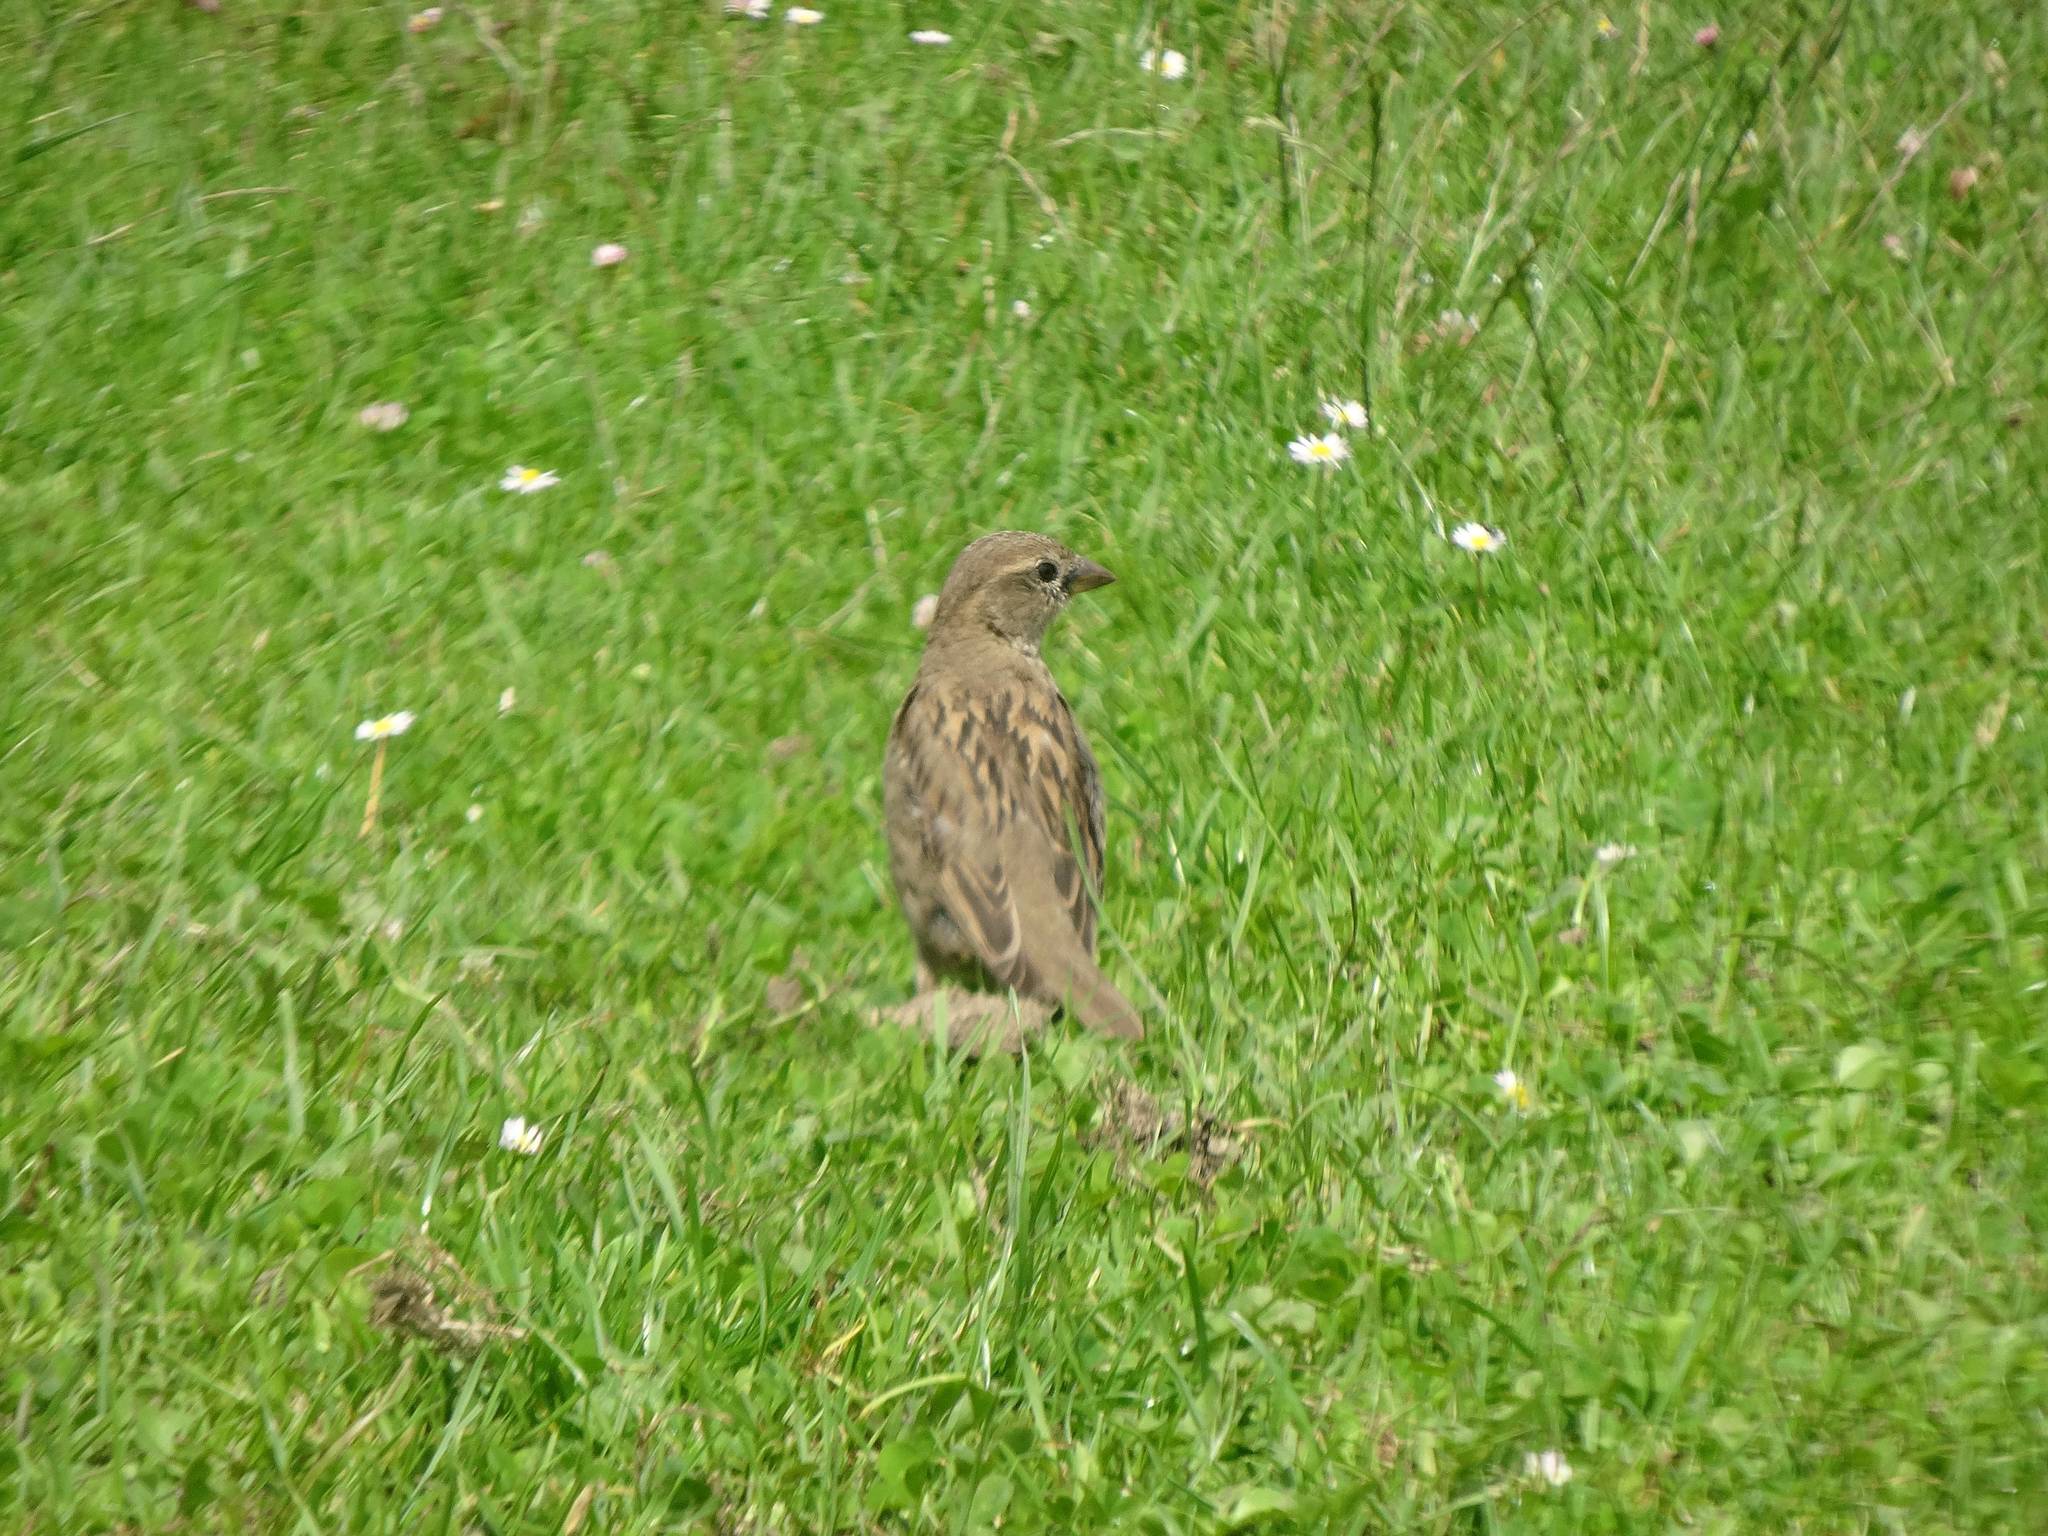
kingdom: Animalia
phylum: Chordata
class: Aves
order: Passeriformes
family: Passeridae
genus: Passer
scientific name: Passer domesticus
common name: House sparrow
